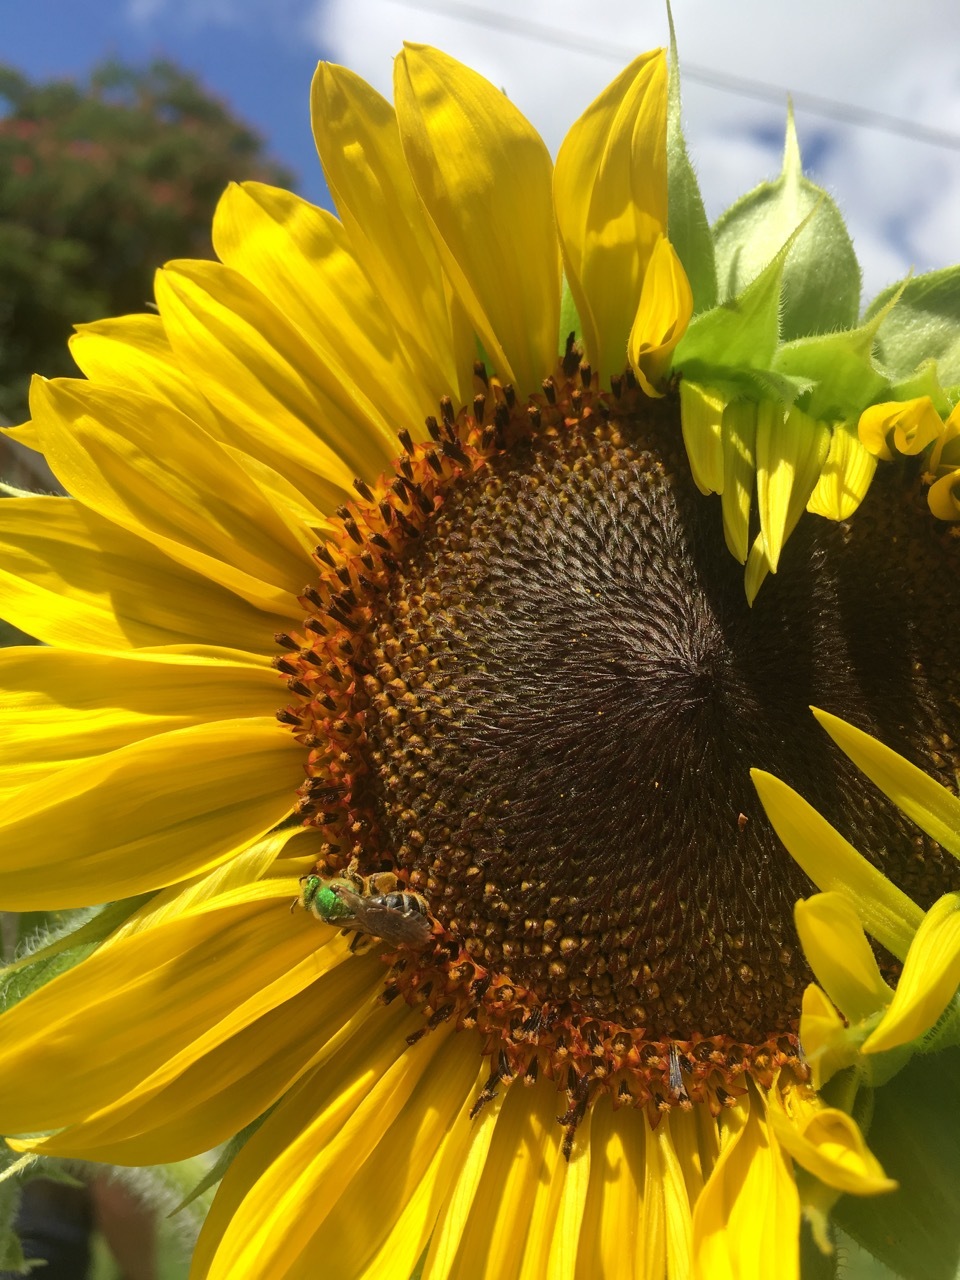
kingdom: Animalia
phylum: Arthropoda
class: Insecta
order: Hymenoptera
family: Halictidae
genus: Agapostemon
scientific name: Agapostemon virescens
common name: Bicolored striped sweat bee
